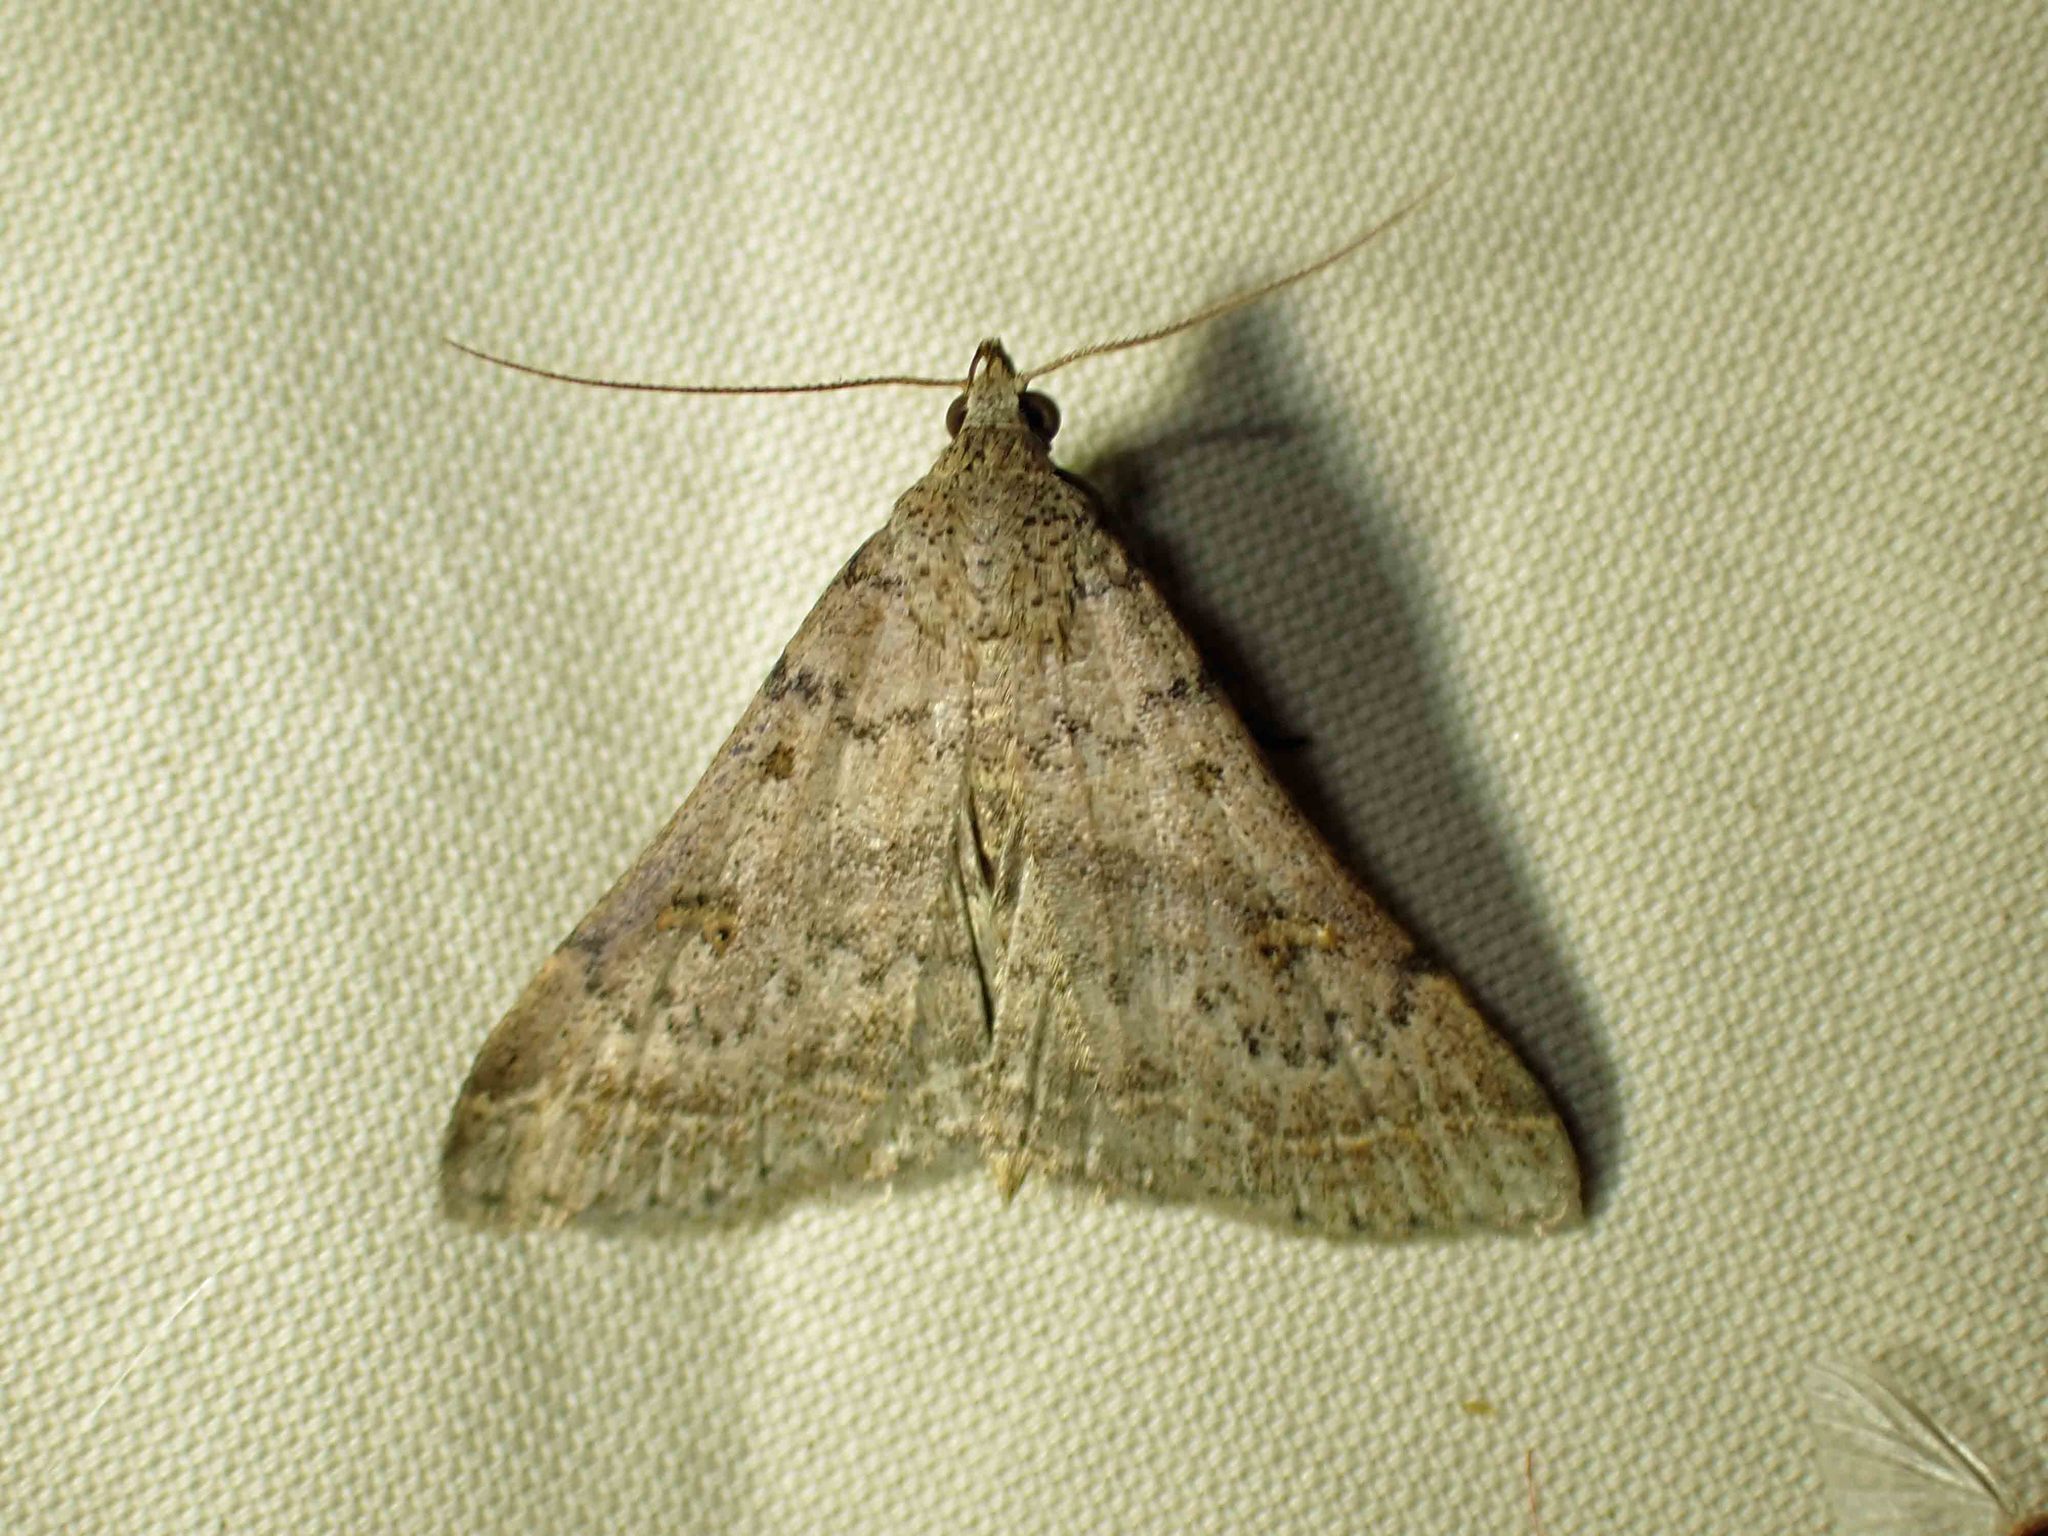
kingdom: Animalia
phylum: Arthropoda
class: Insecta
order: Lepidoptera
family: Erebidae
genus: Bleptina
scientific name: Bleptina caradrinalis
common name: Bent-winged owlet
